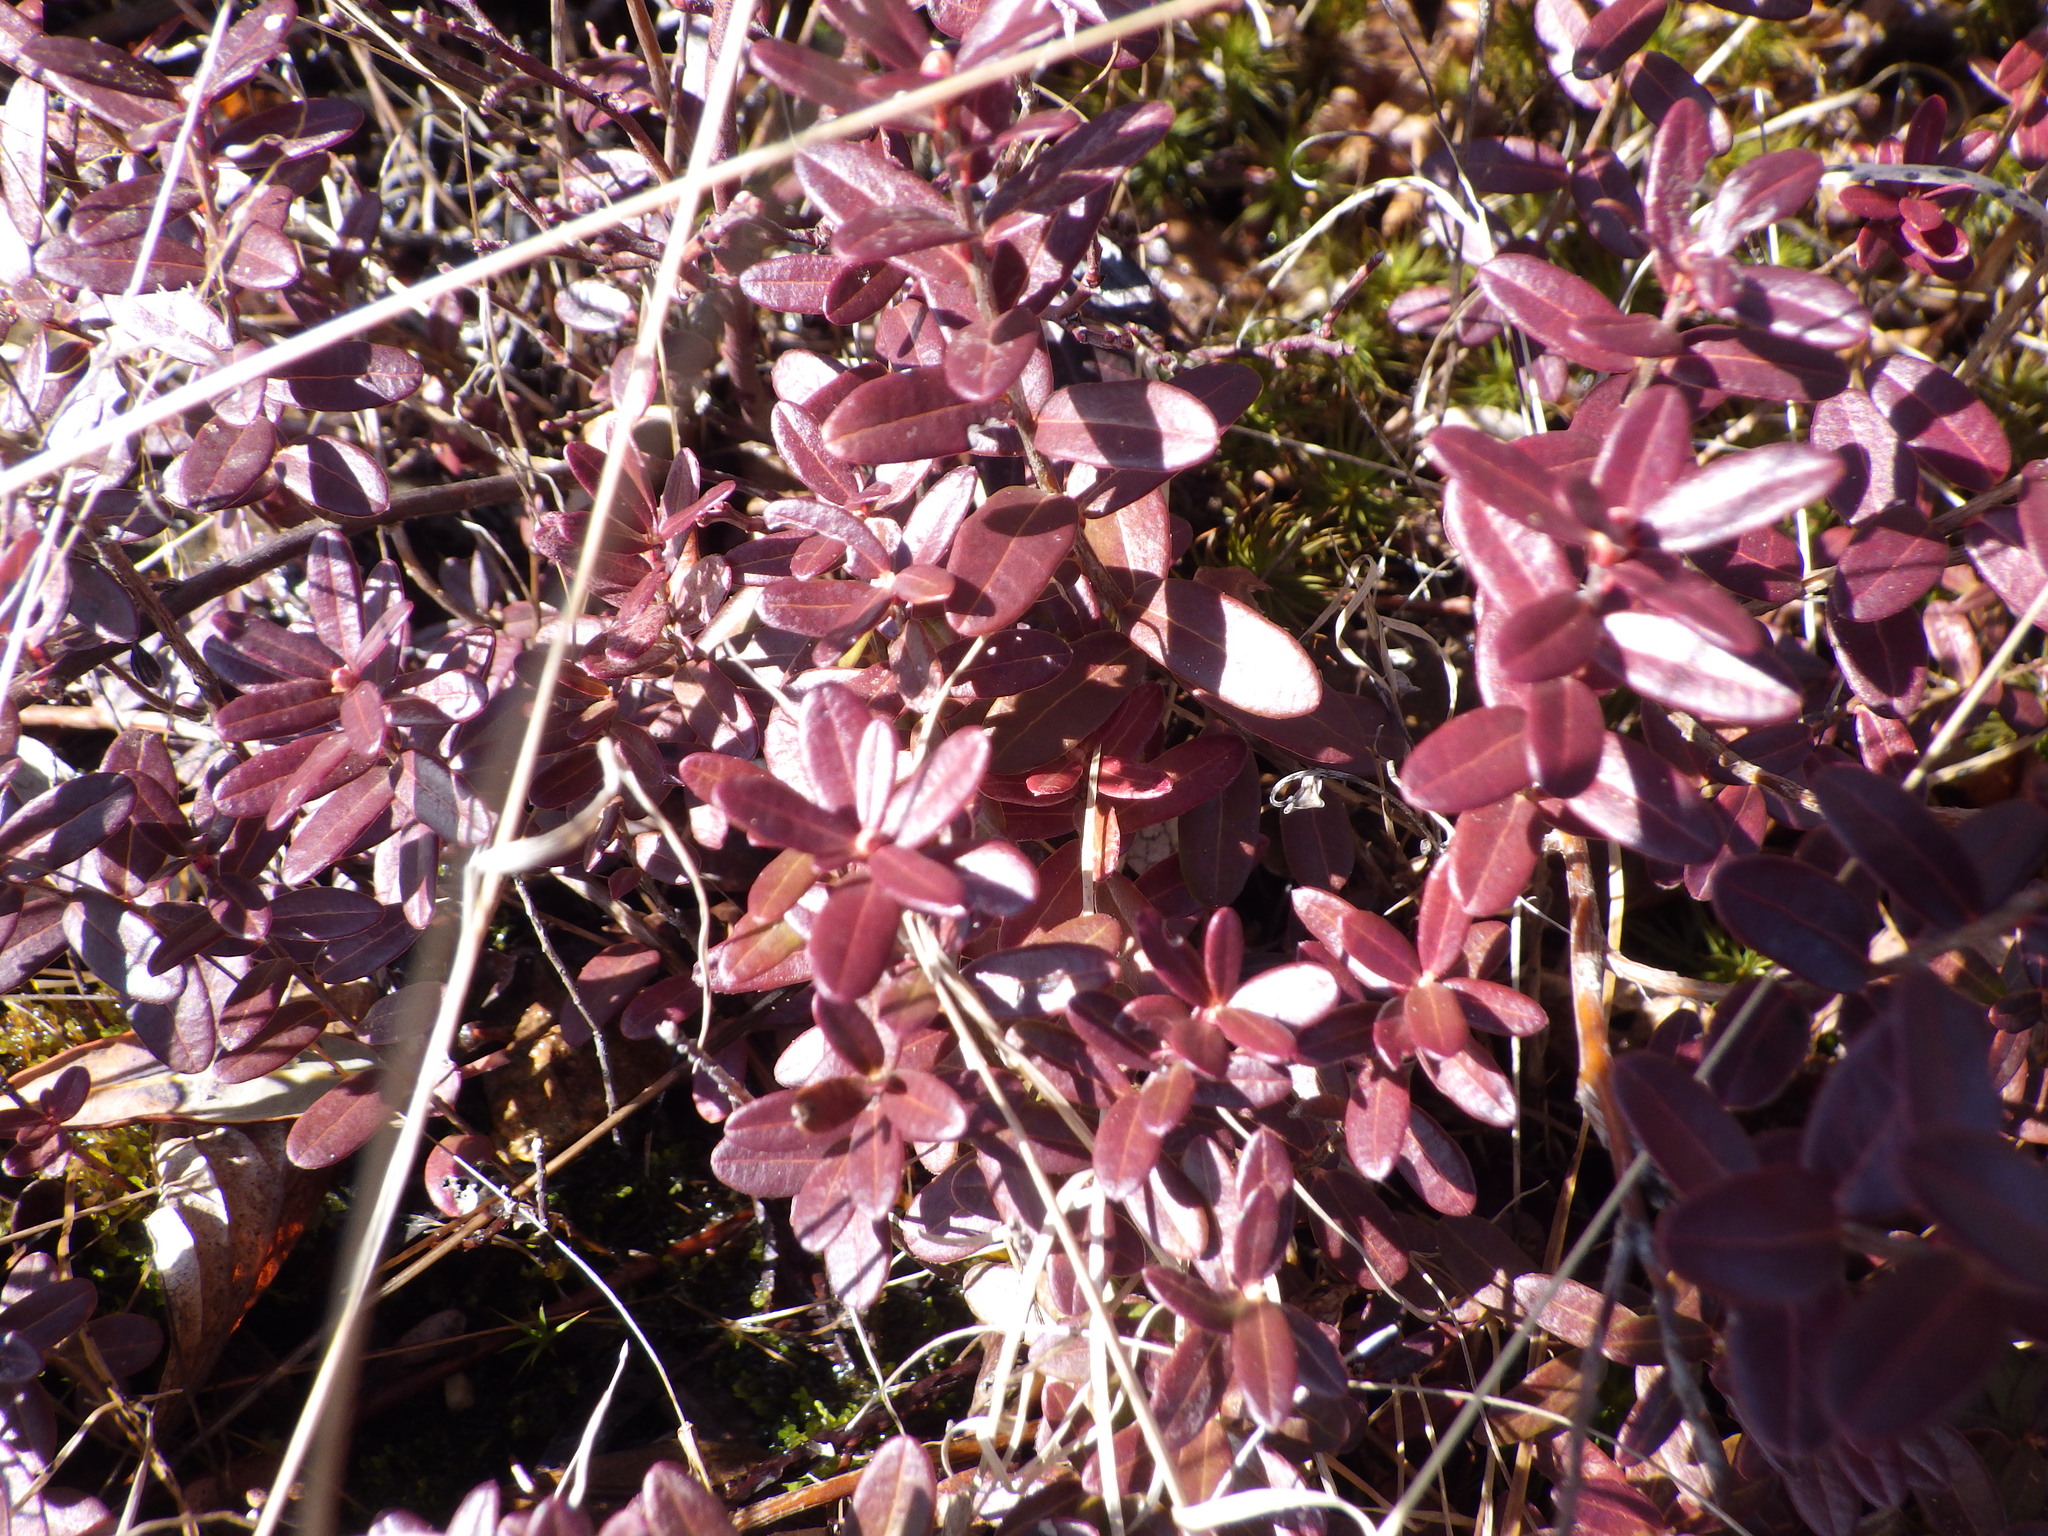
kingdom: Plantae
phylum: Tracheophyta
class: Magnoliopsida
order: Ericales
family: Ericaceae
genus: Vaccinium
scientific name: Vaccinium macrocarpon
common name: American cranberry
